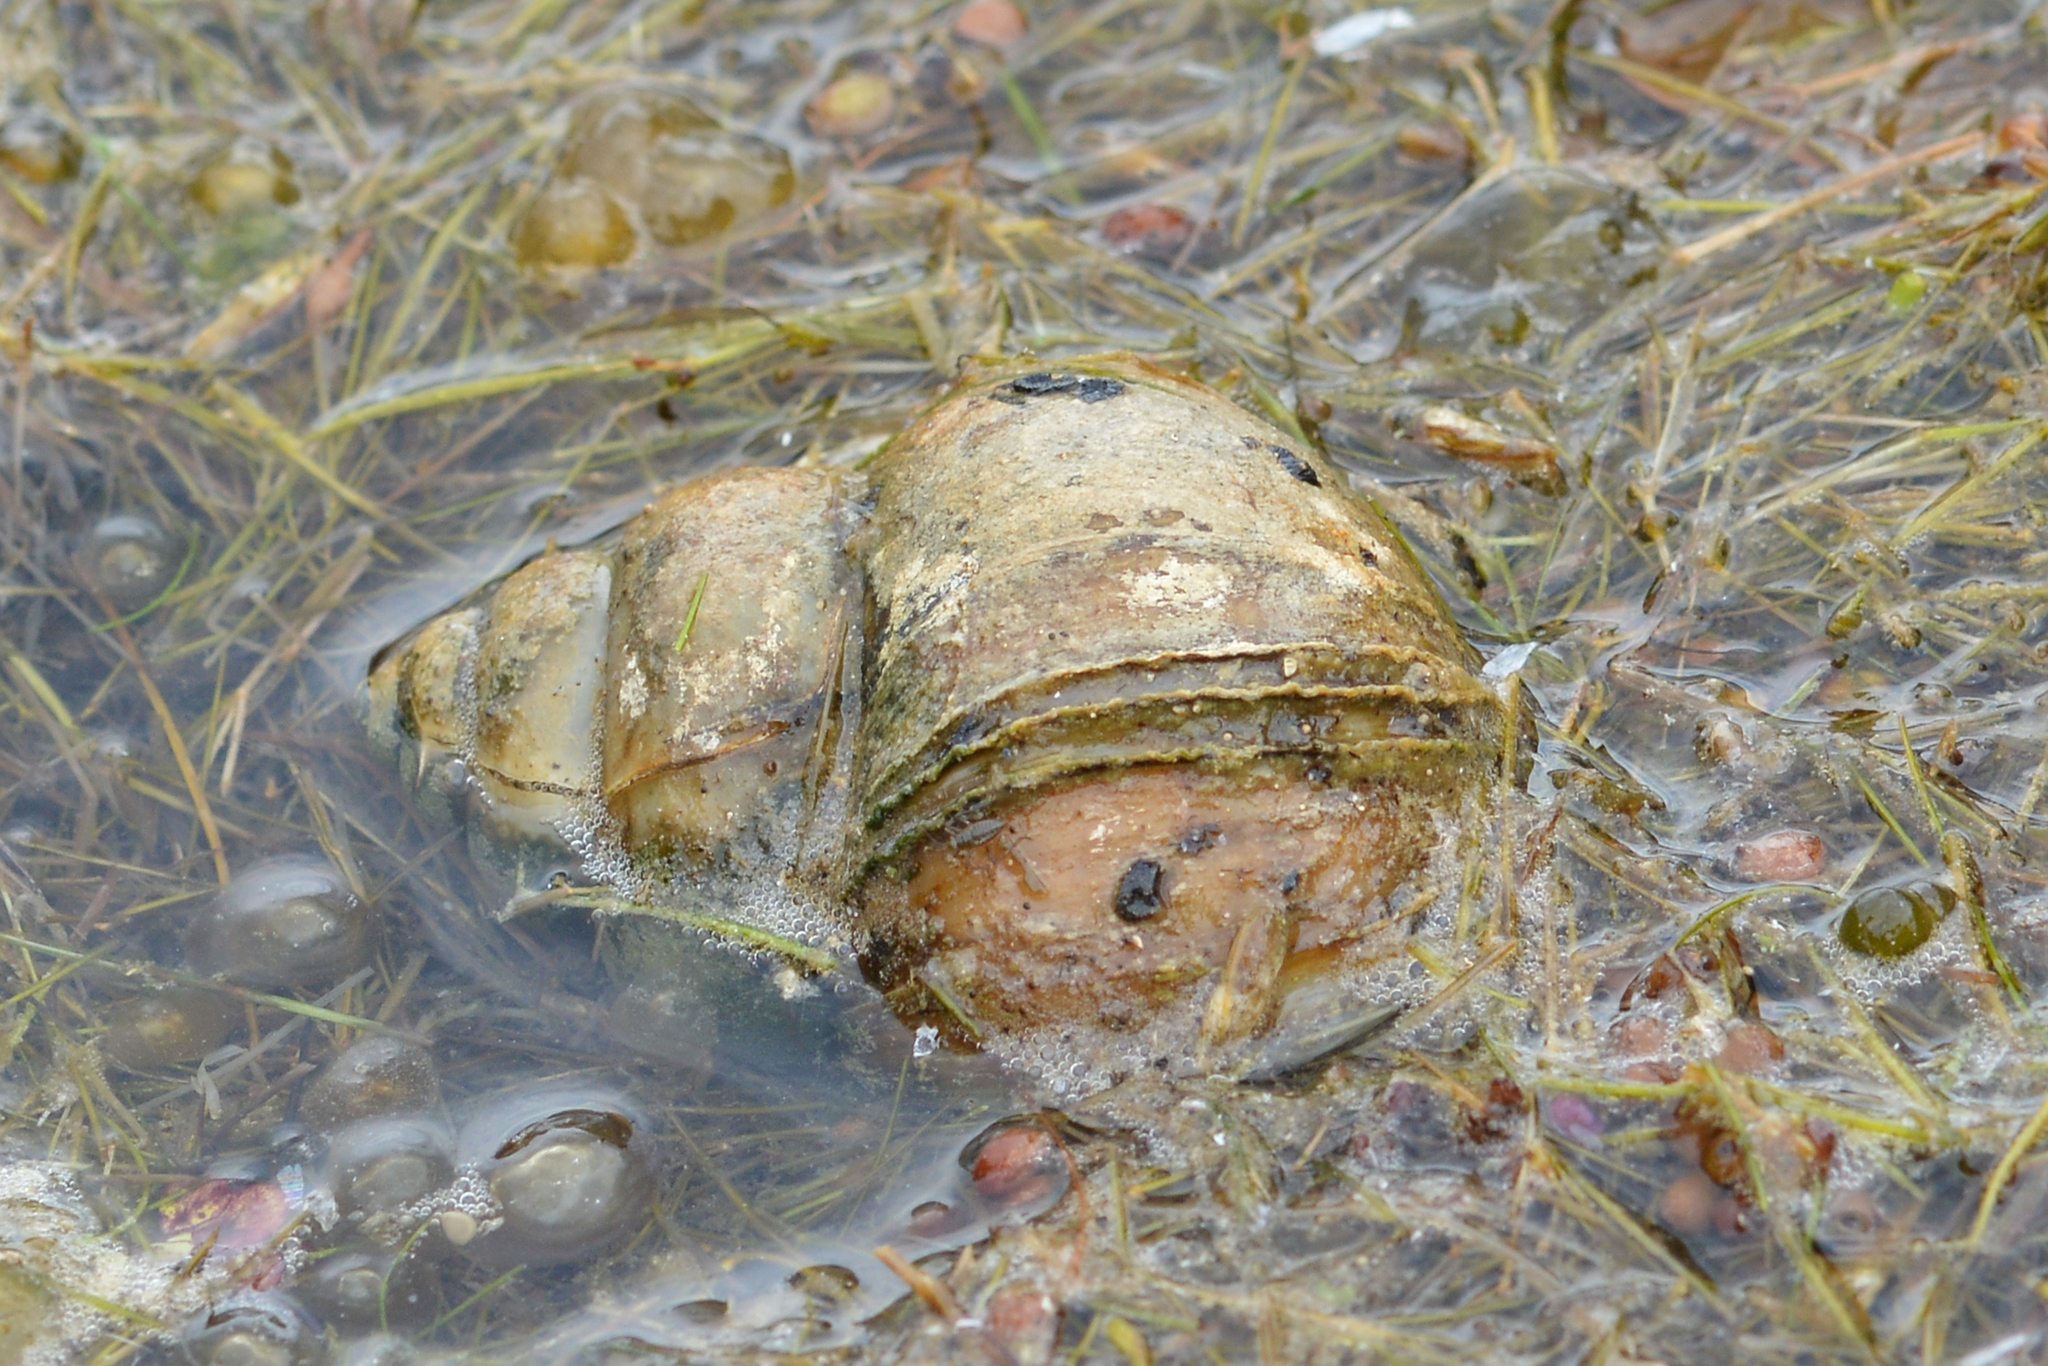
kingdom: Animalia
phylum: Mollusca
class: Gastropoda
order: Architaenioglossa
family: Viviparidae
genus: Cipangopaludina
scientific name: Cipangopaludina chinensis
